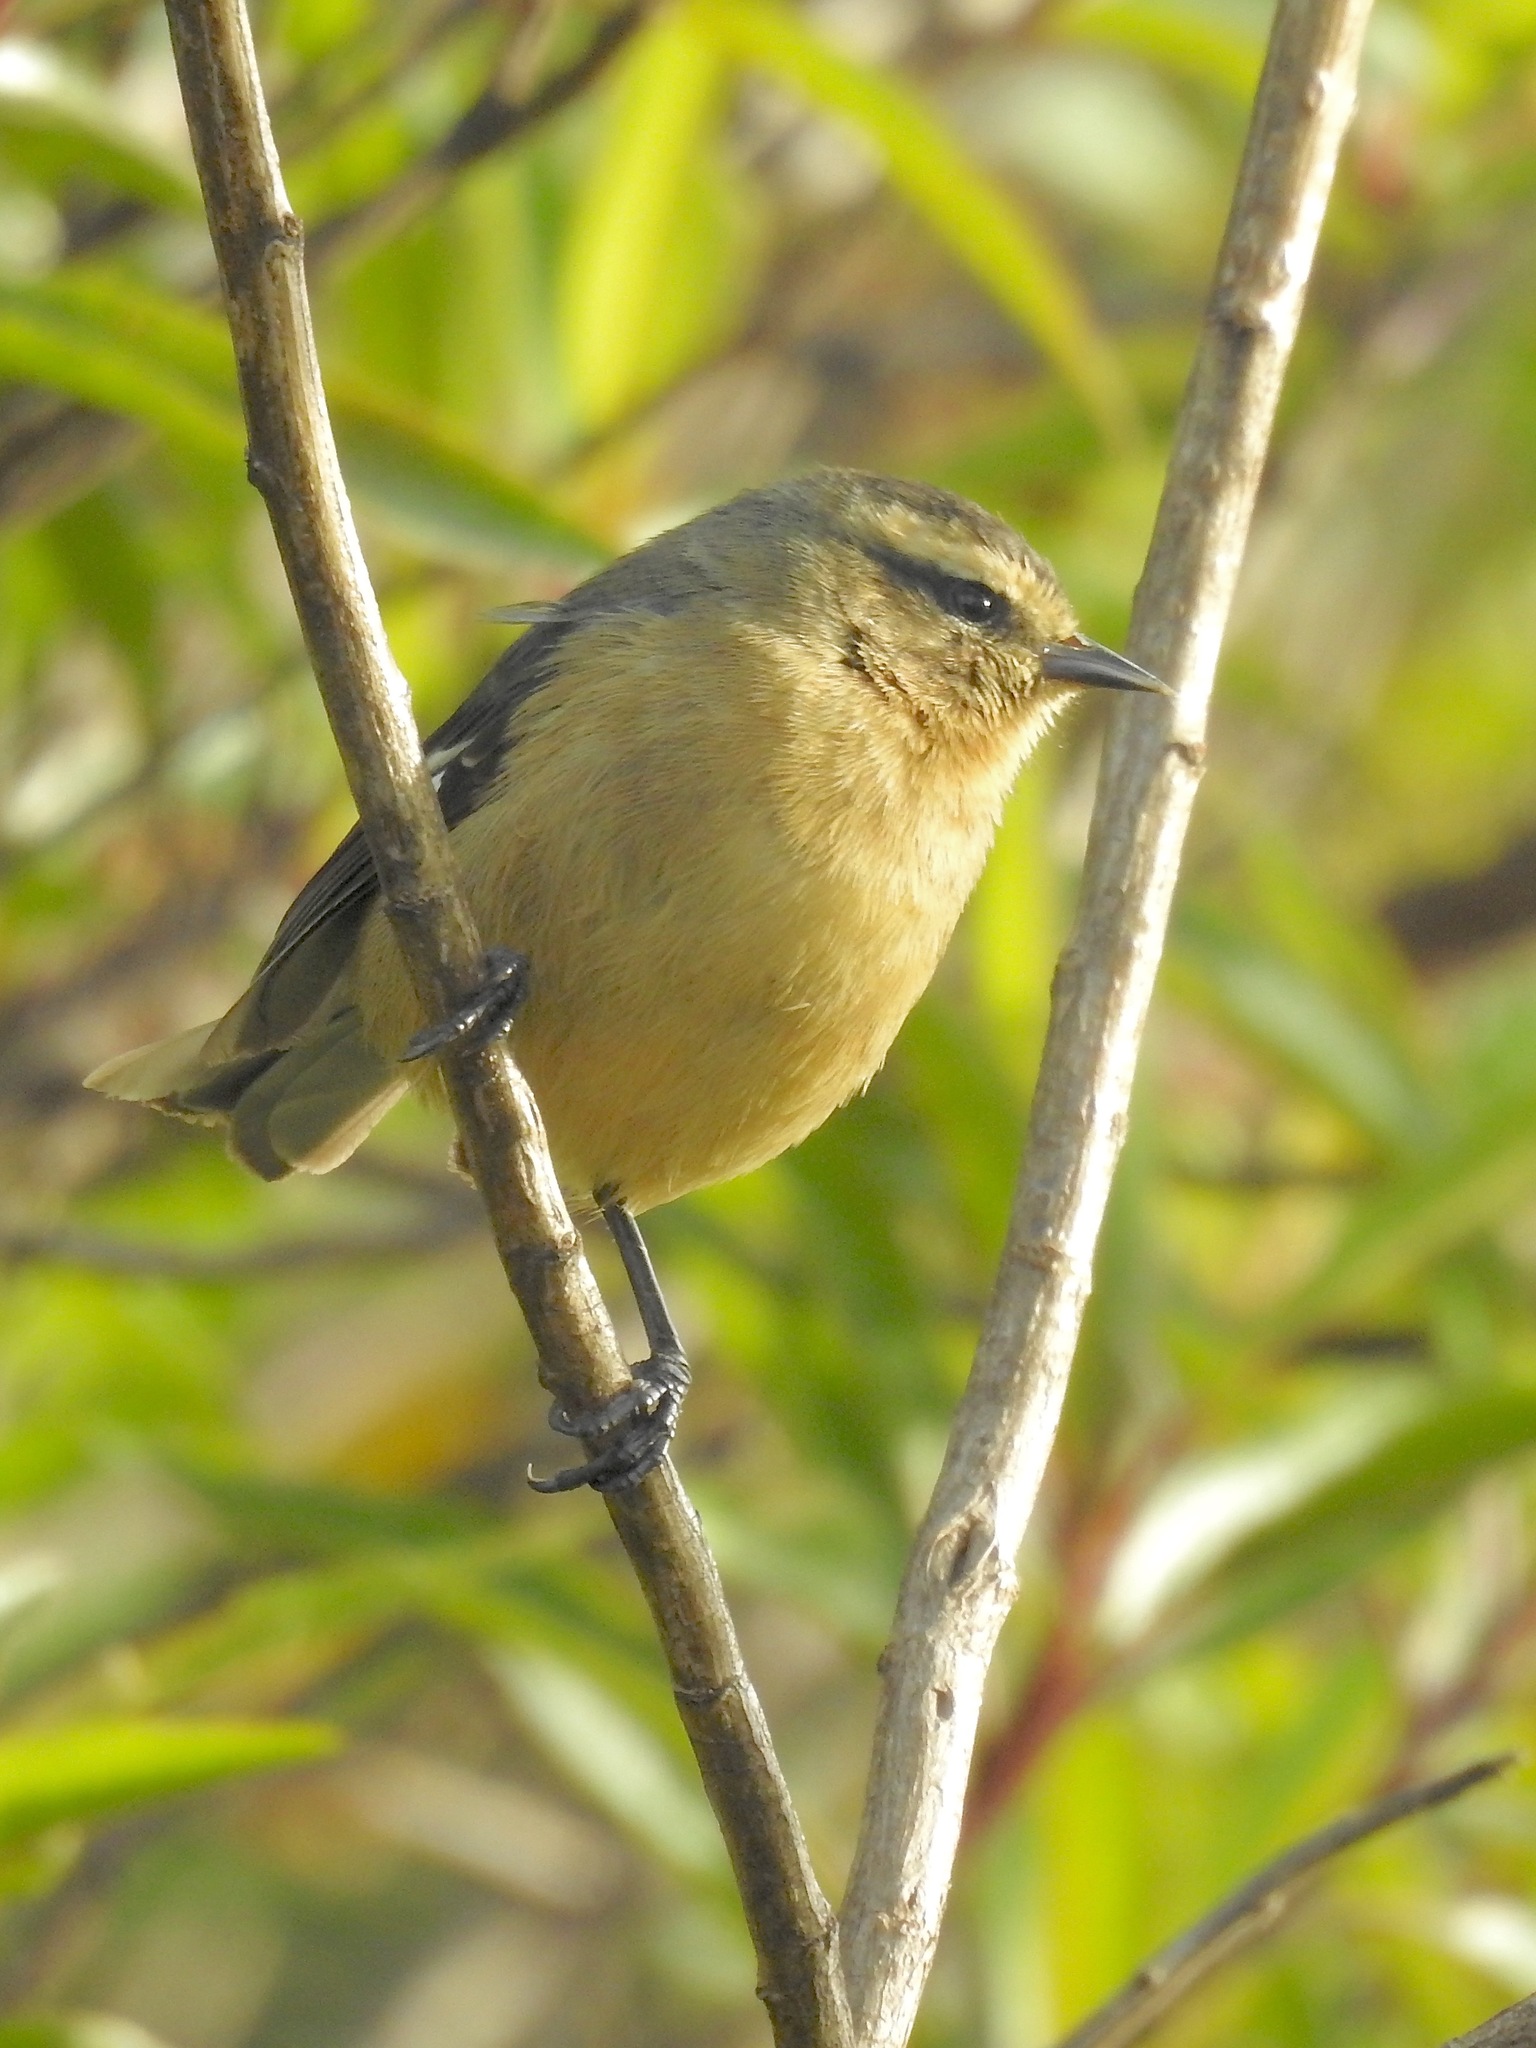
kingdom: Animalia
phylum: Chordata
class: Aves
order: Passeriformes
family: Thraupidae
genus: Conirostrum
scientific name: Conirostrum cinereum
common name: Cinereous conebill
